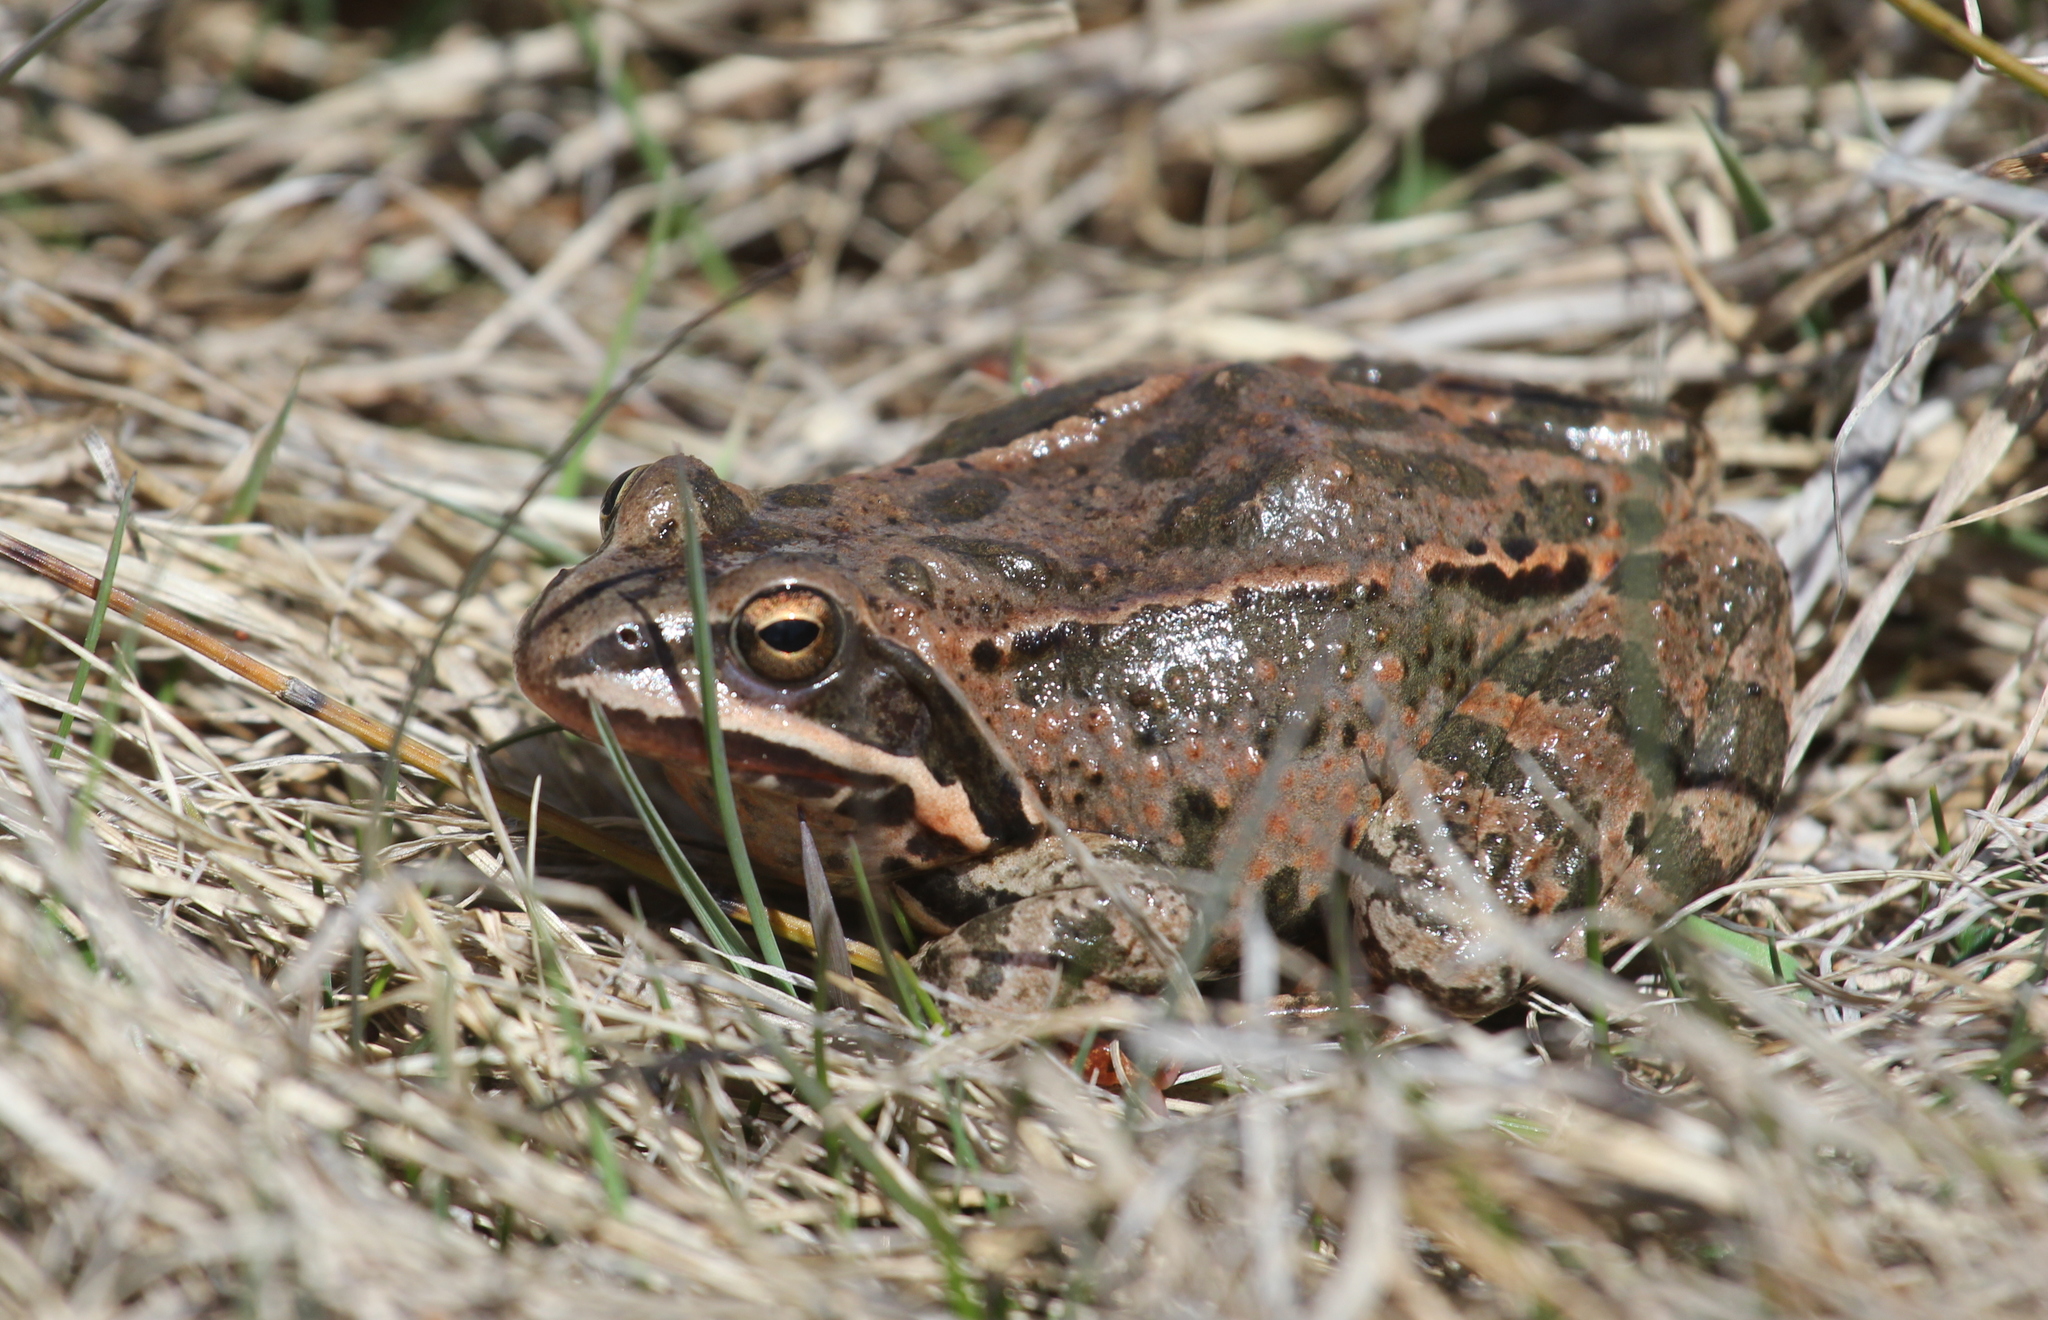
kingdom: Animalia
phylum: Chordata
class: Amphibia
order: Anura
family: Ranidae
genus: Rana
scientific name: Rana macrocnemis
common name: Banded frog
